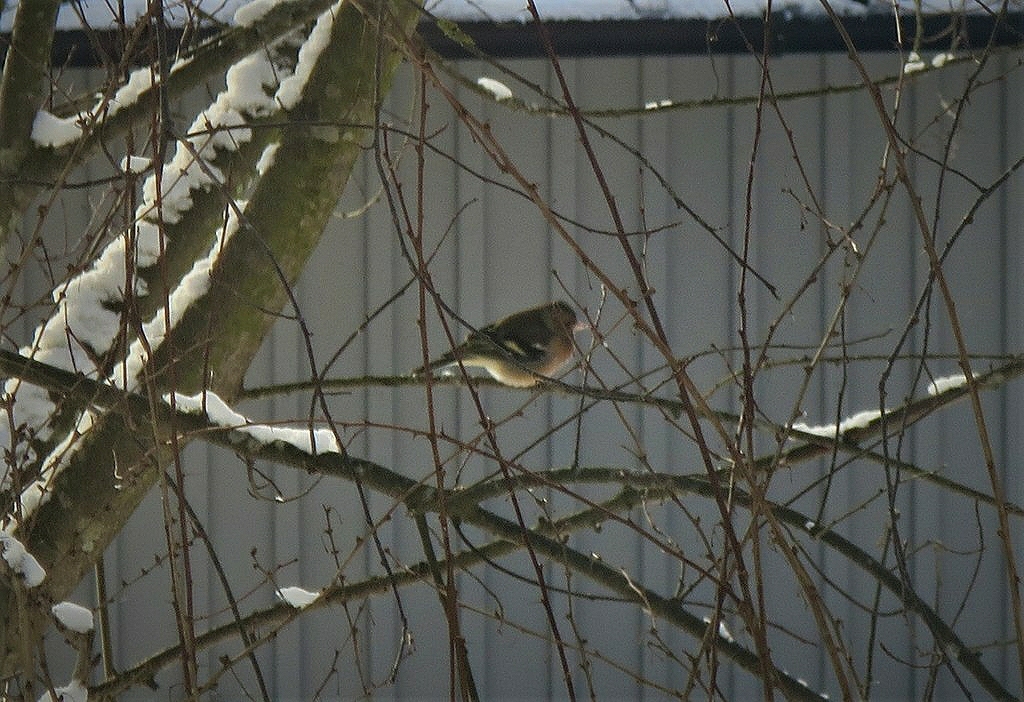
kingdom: Animalia
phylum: Chordata
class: Aves
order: Passeriformes
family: Fringillidae
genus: Fringilla
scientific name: Fringilla coelebs
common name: Common chaffinch
